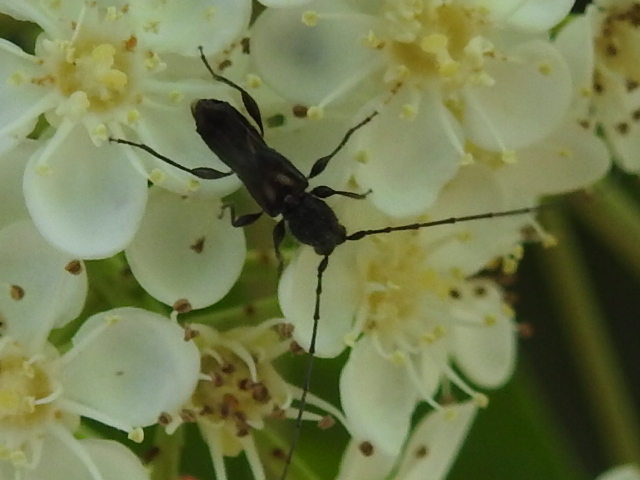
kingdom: Animalia
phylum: Arthropoda
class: Insecta
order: Coleoptera
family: Cerambycidae
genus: Molorchus
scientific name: Molorchus bimaculatus
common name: Bimaculate longhorn beetle
